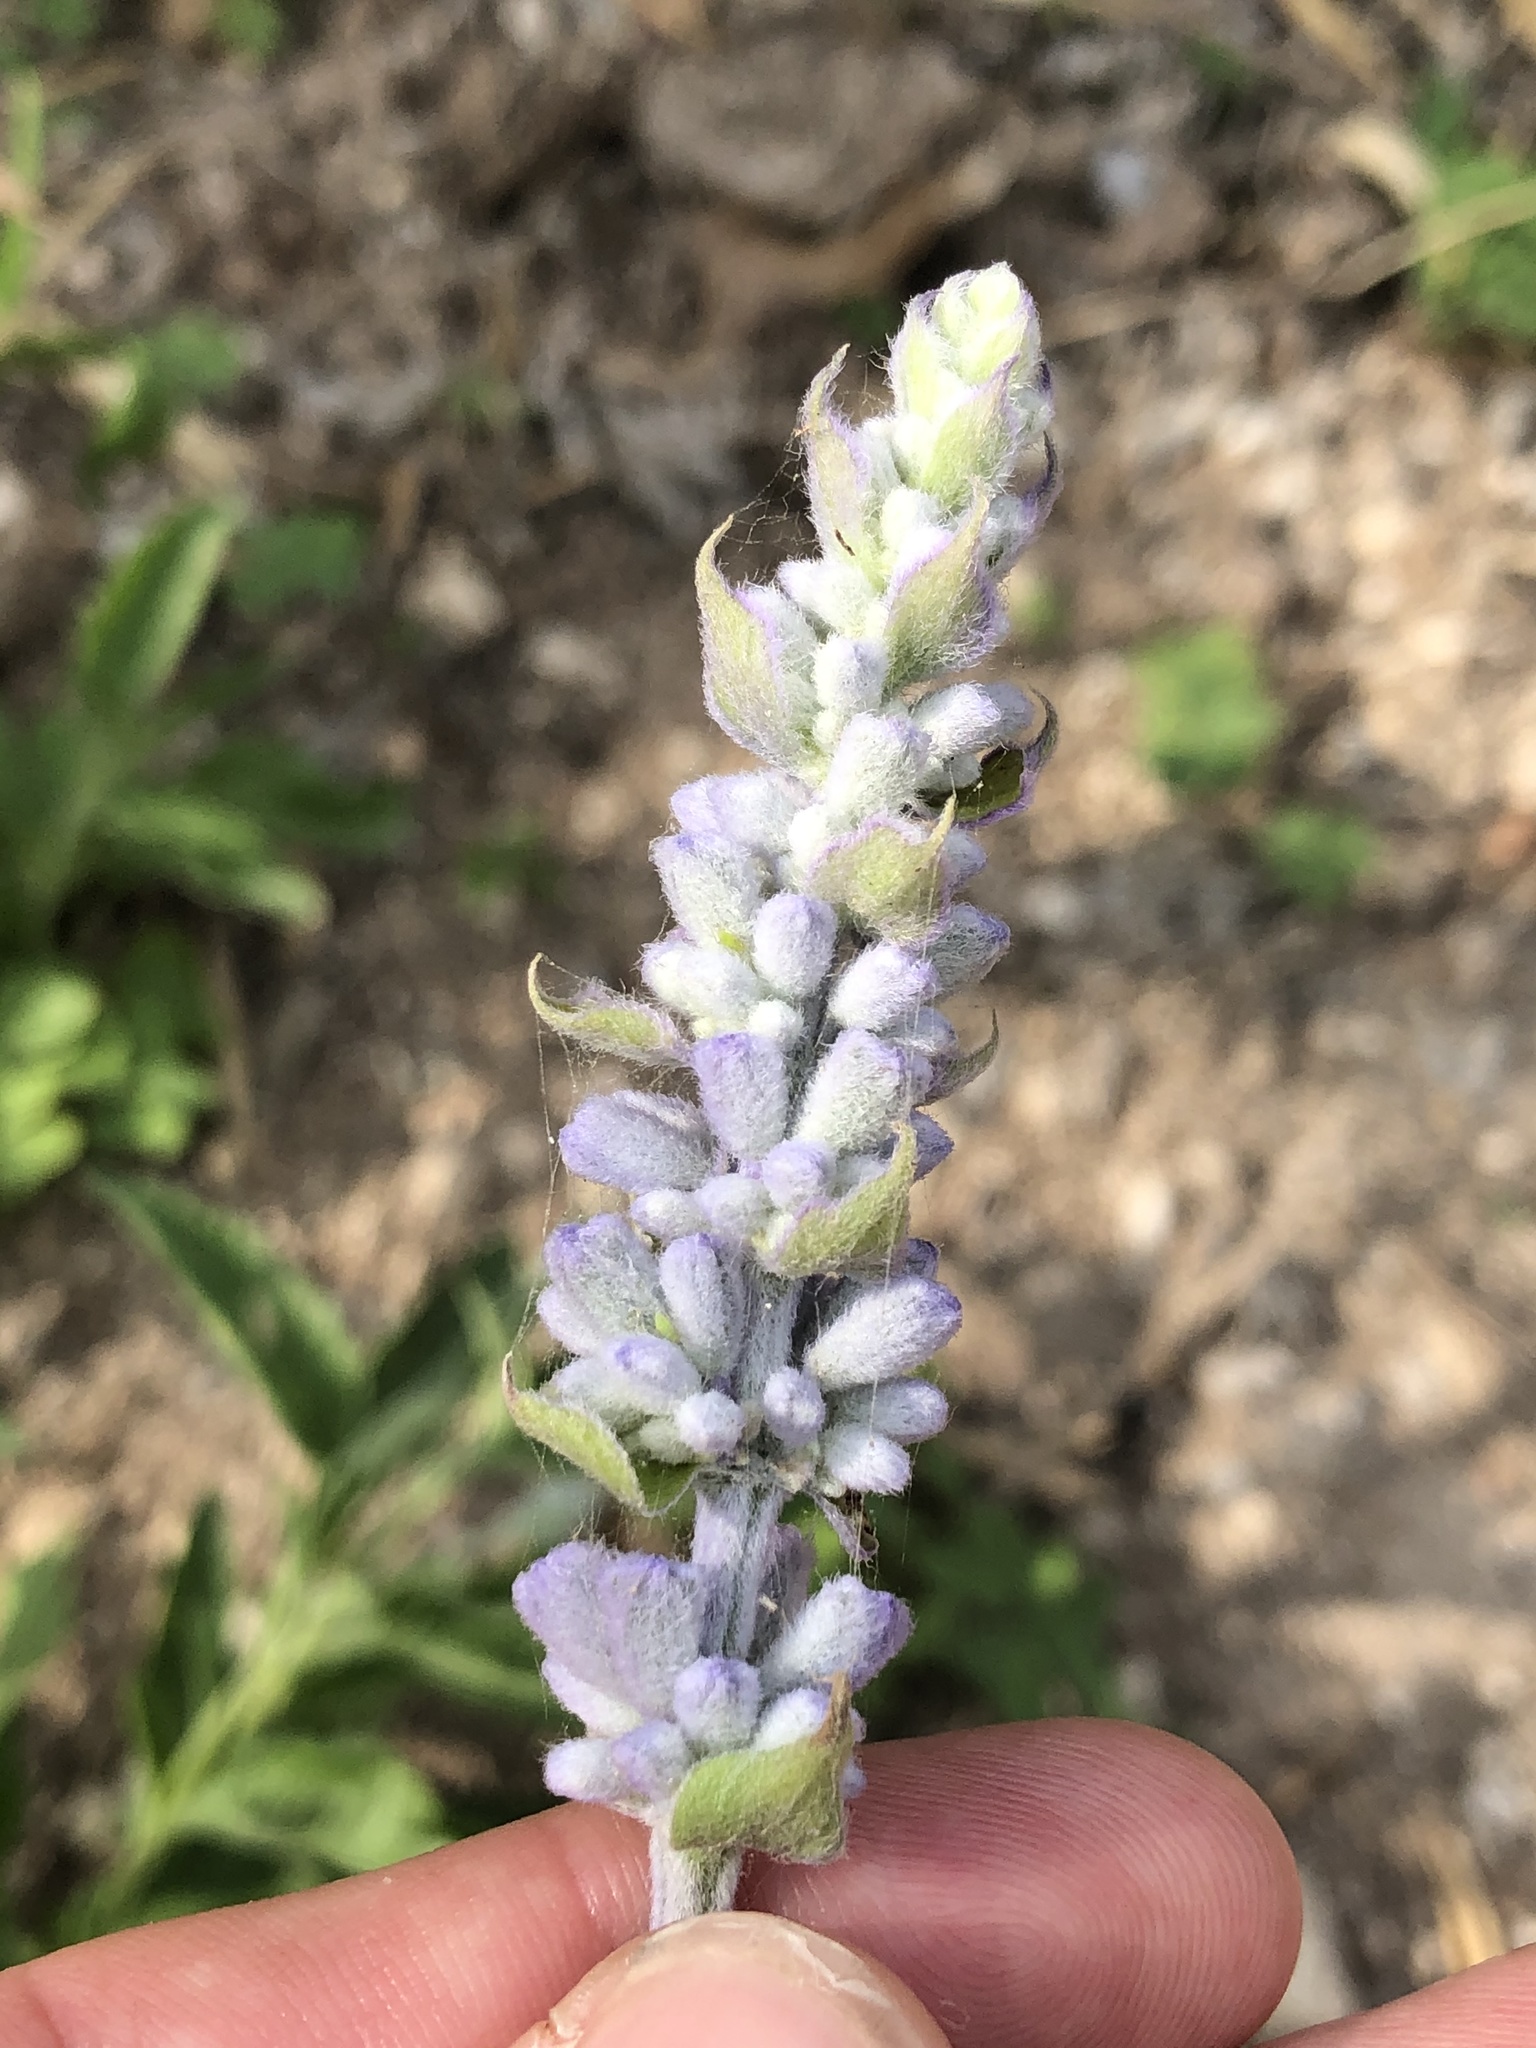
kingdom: Plantae
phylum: Tracheophyta
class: Magnoliopsida
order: Lamiales
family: Lamiaceae
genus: Salvia
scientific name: Salvia farinacea
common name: Mealy sage
